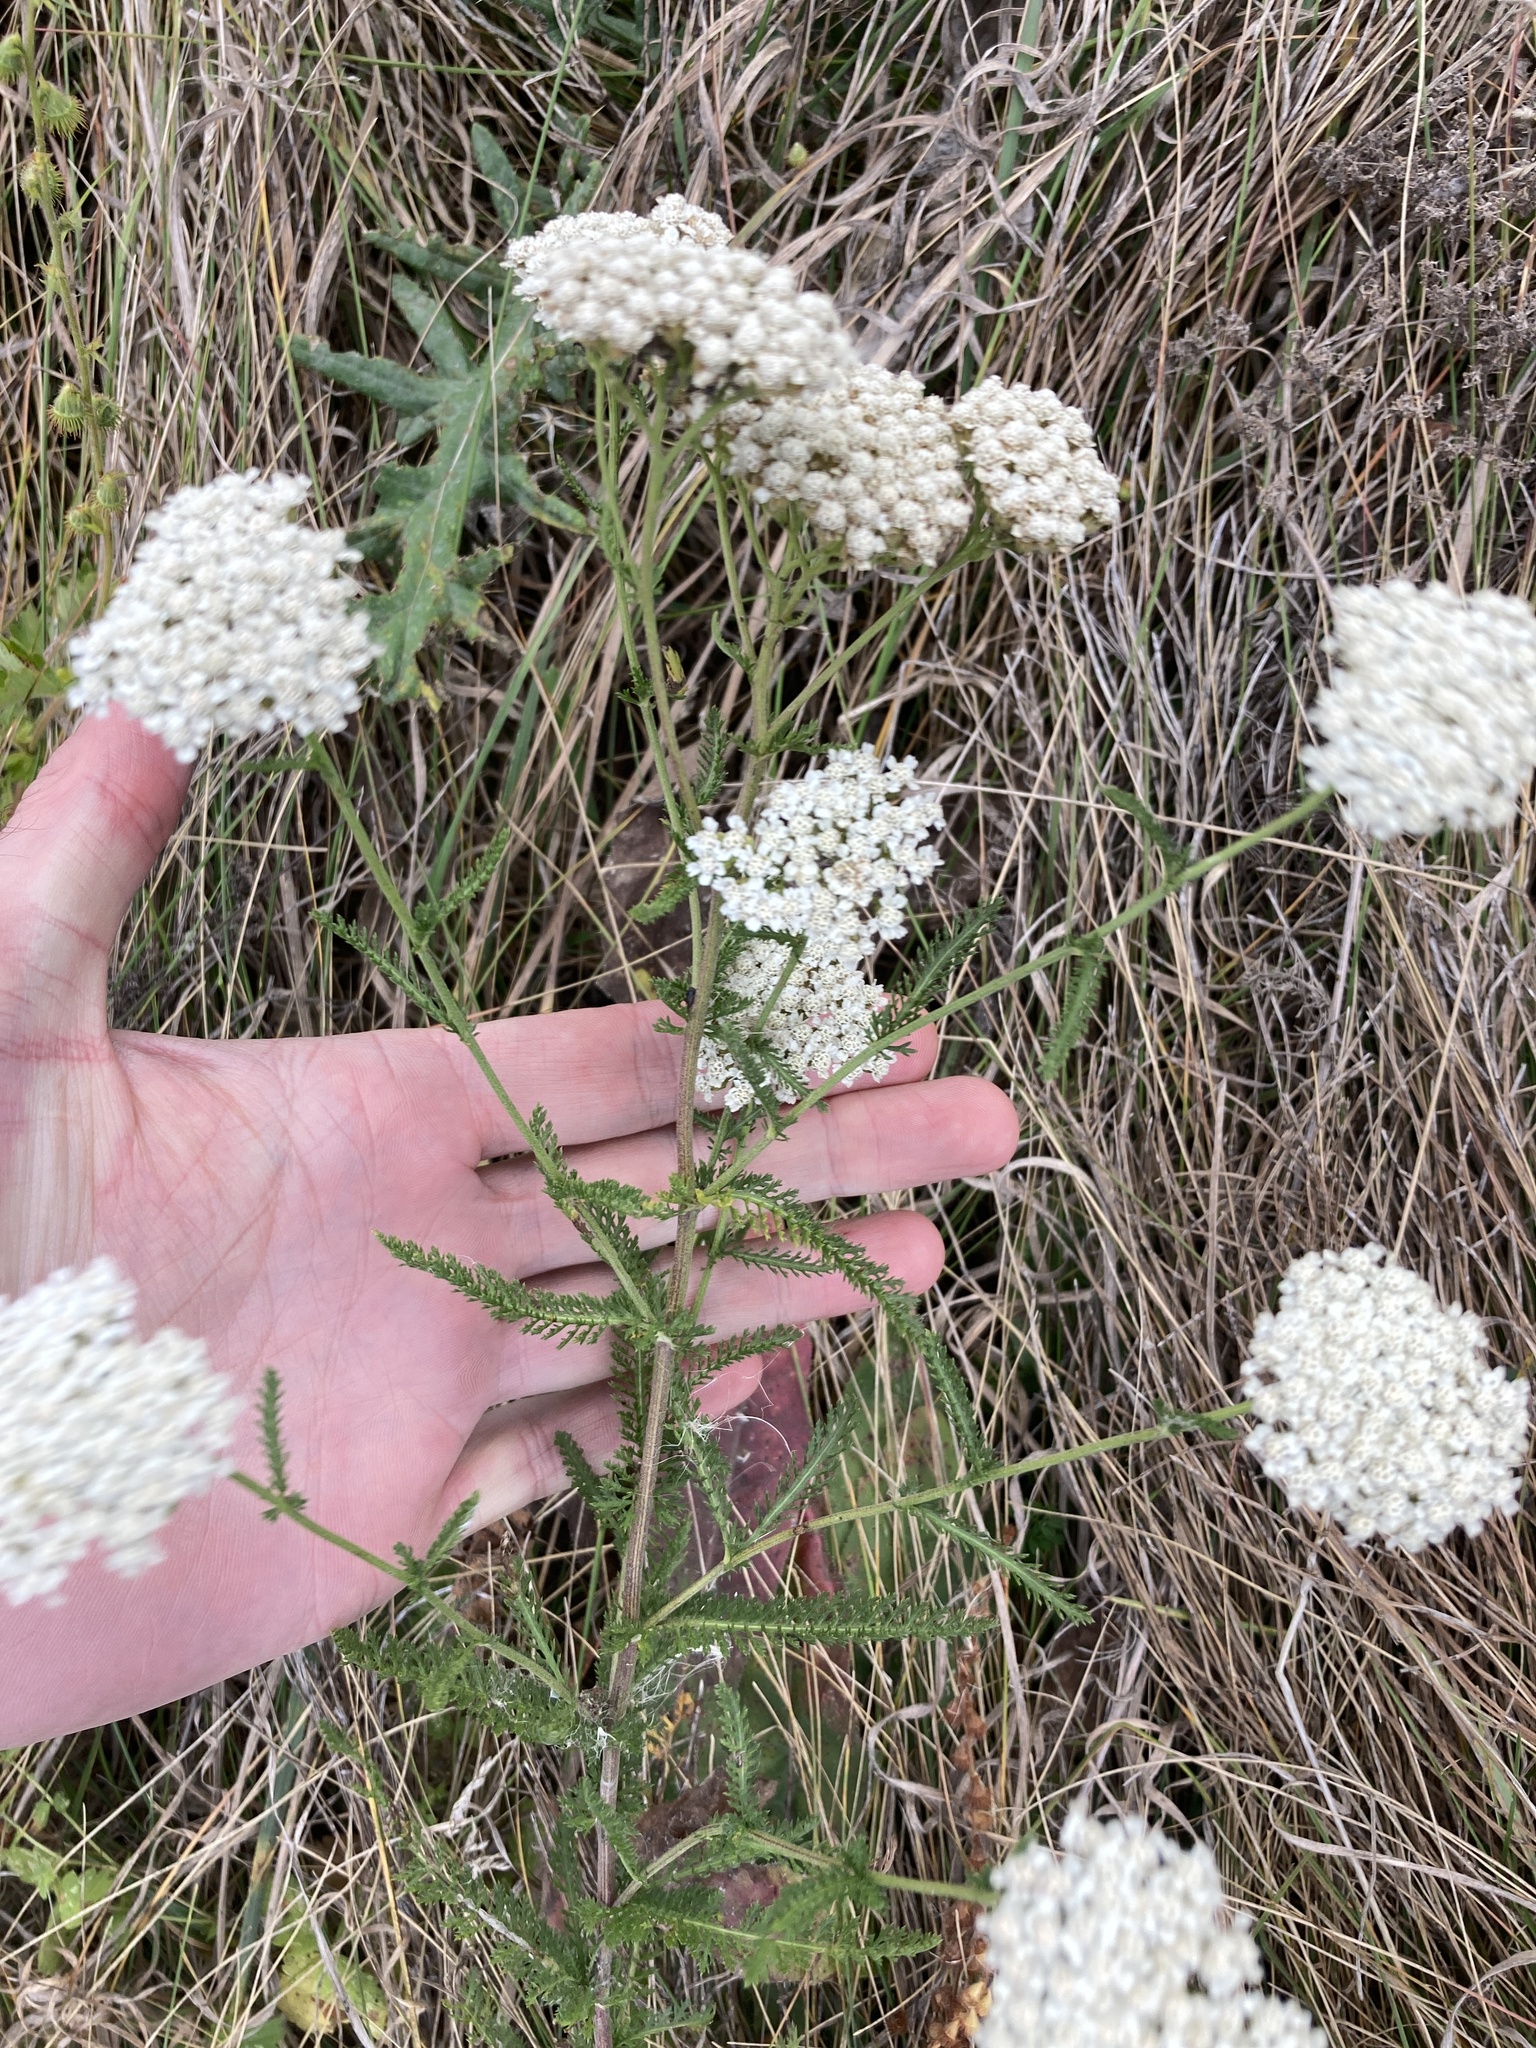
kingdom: Plantae
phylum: Tracheophyta
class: Magnoliopsida
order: Asterales
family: Asteraceae
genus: Achillea
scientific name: Achillea millefolium
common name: Yarrow
